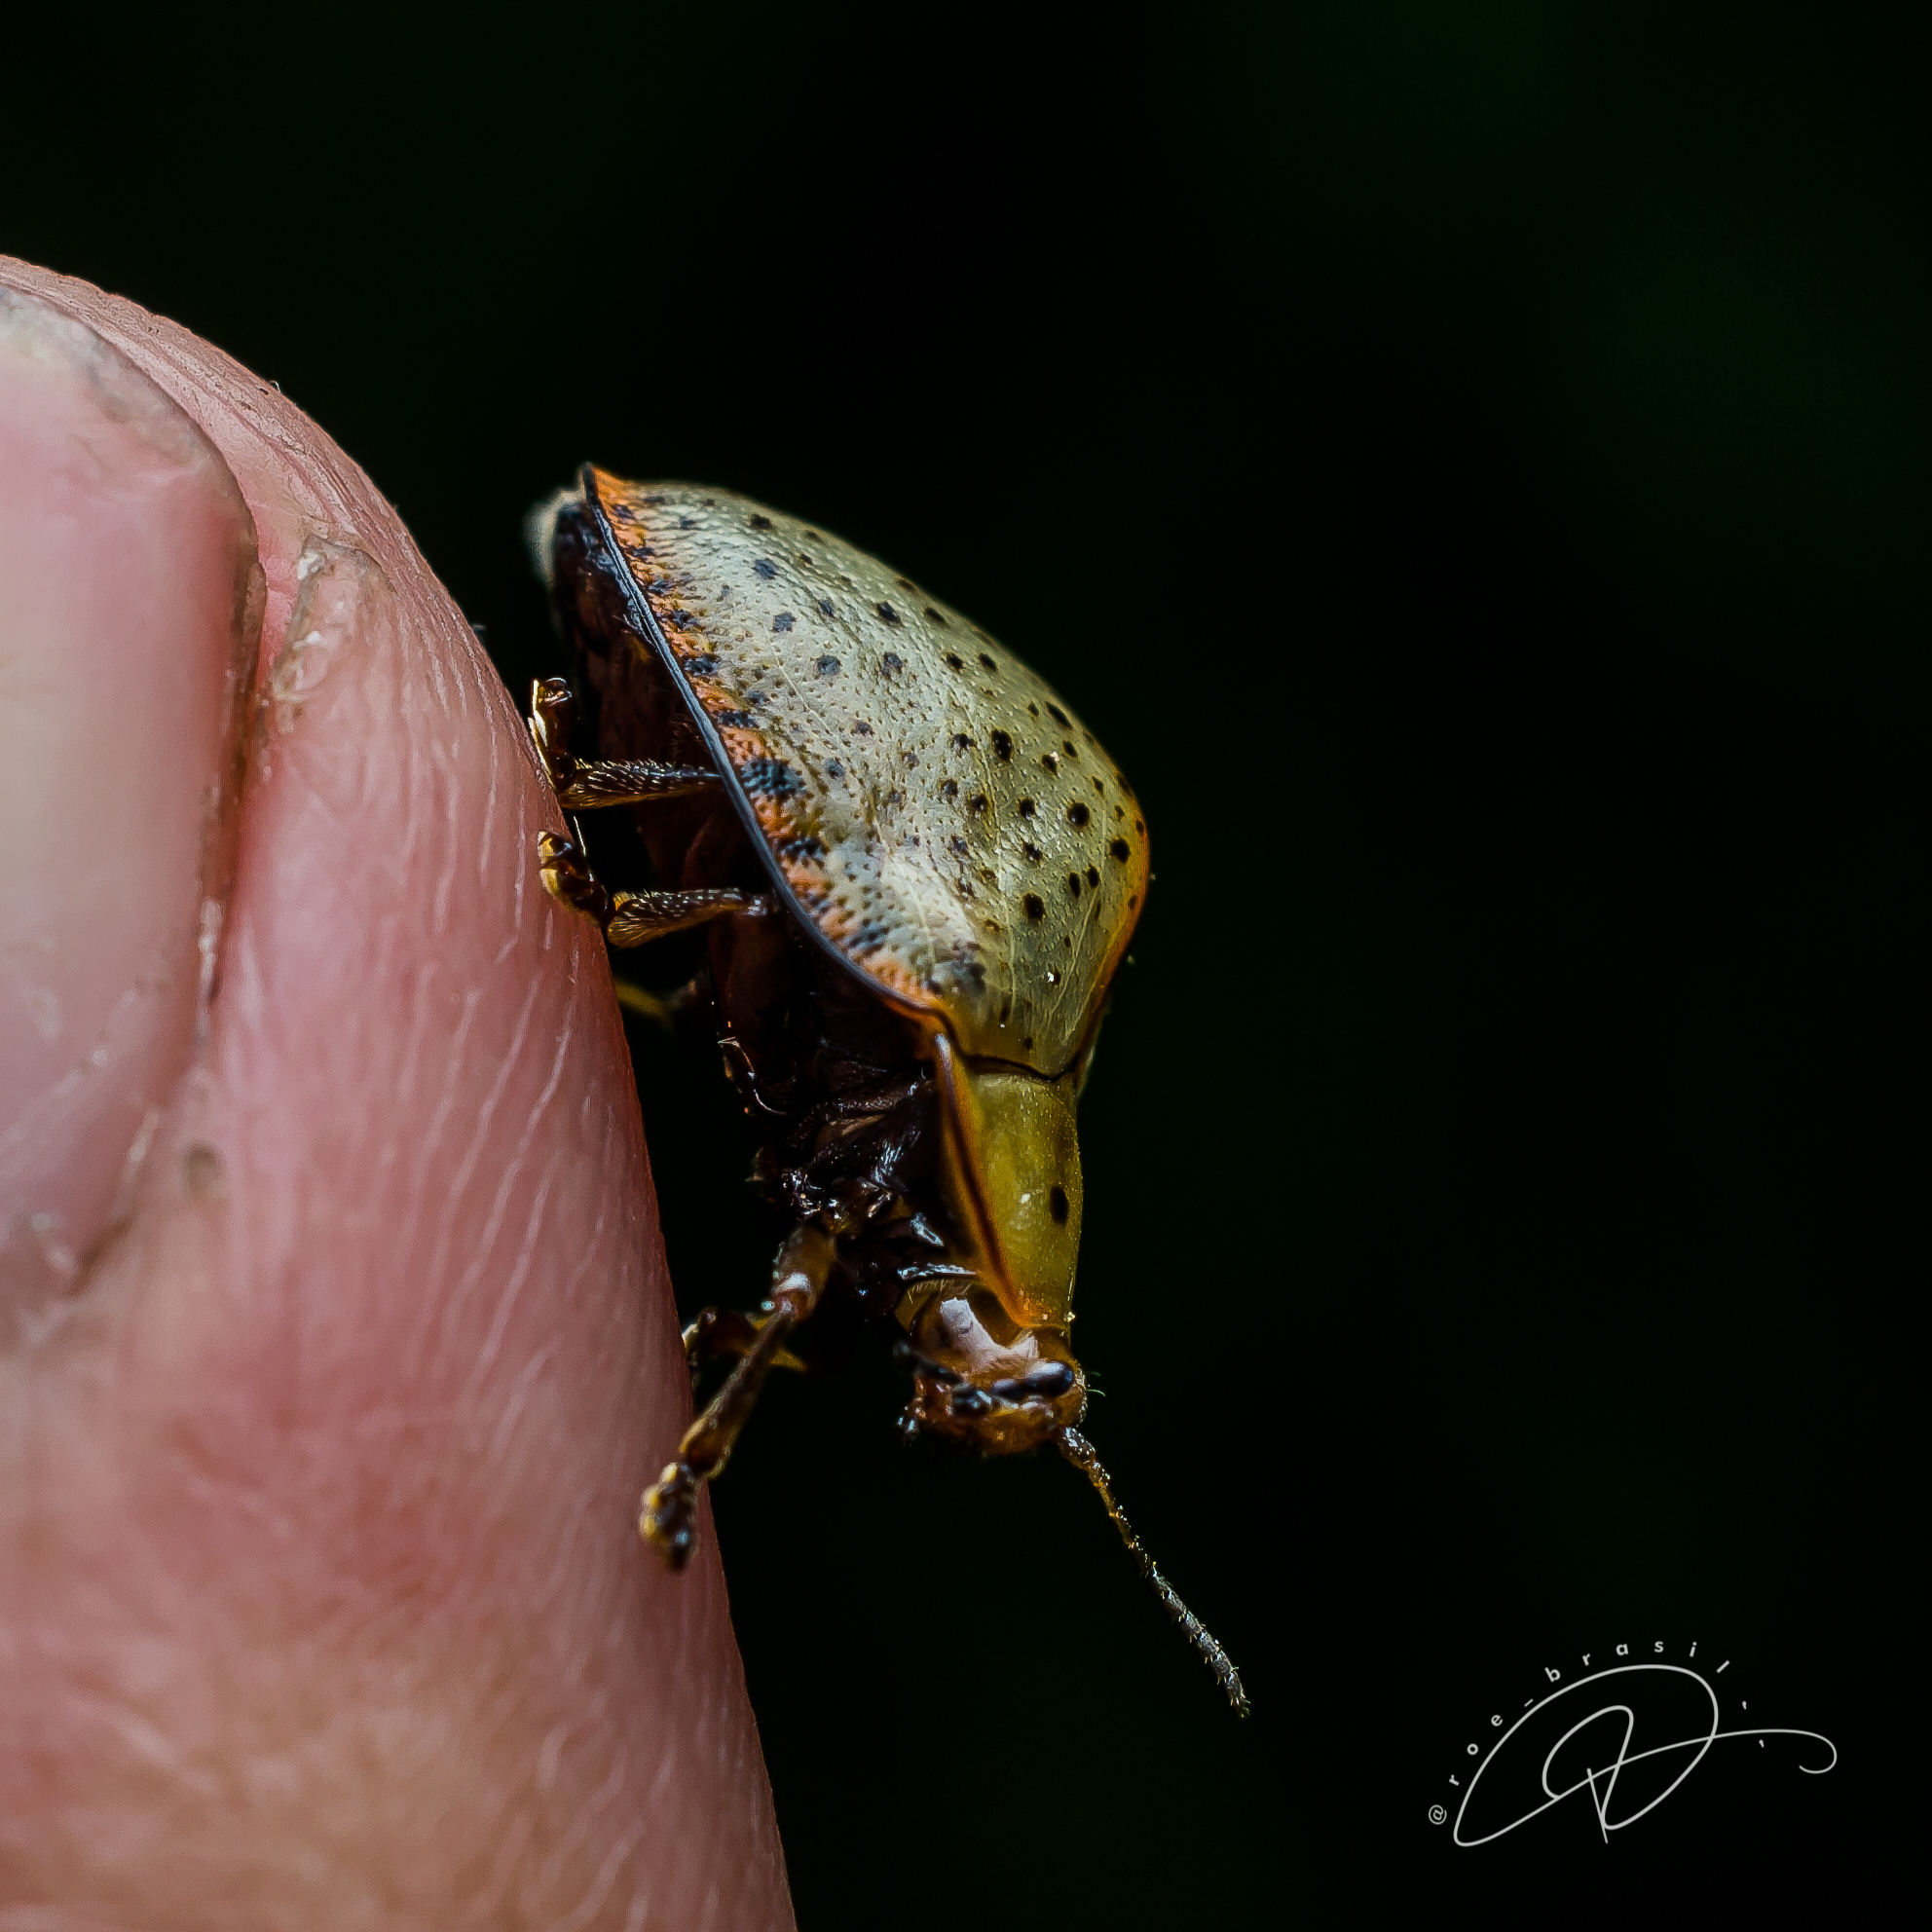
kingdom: Animalia
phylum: Arthropoda
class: Insecta
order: Coleoptera
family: Chrysomelidae
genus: Chelymorpha
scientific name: Chelymorpha indigesta
